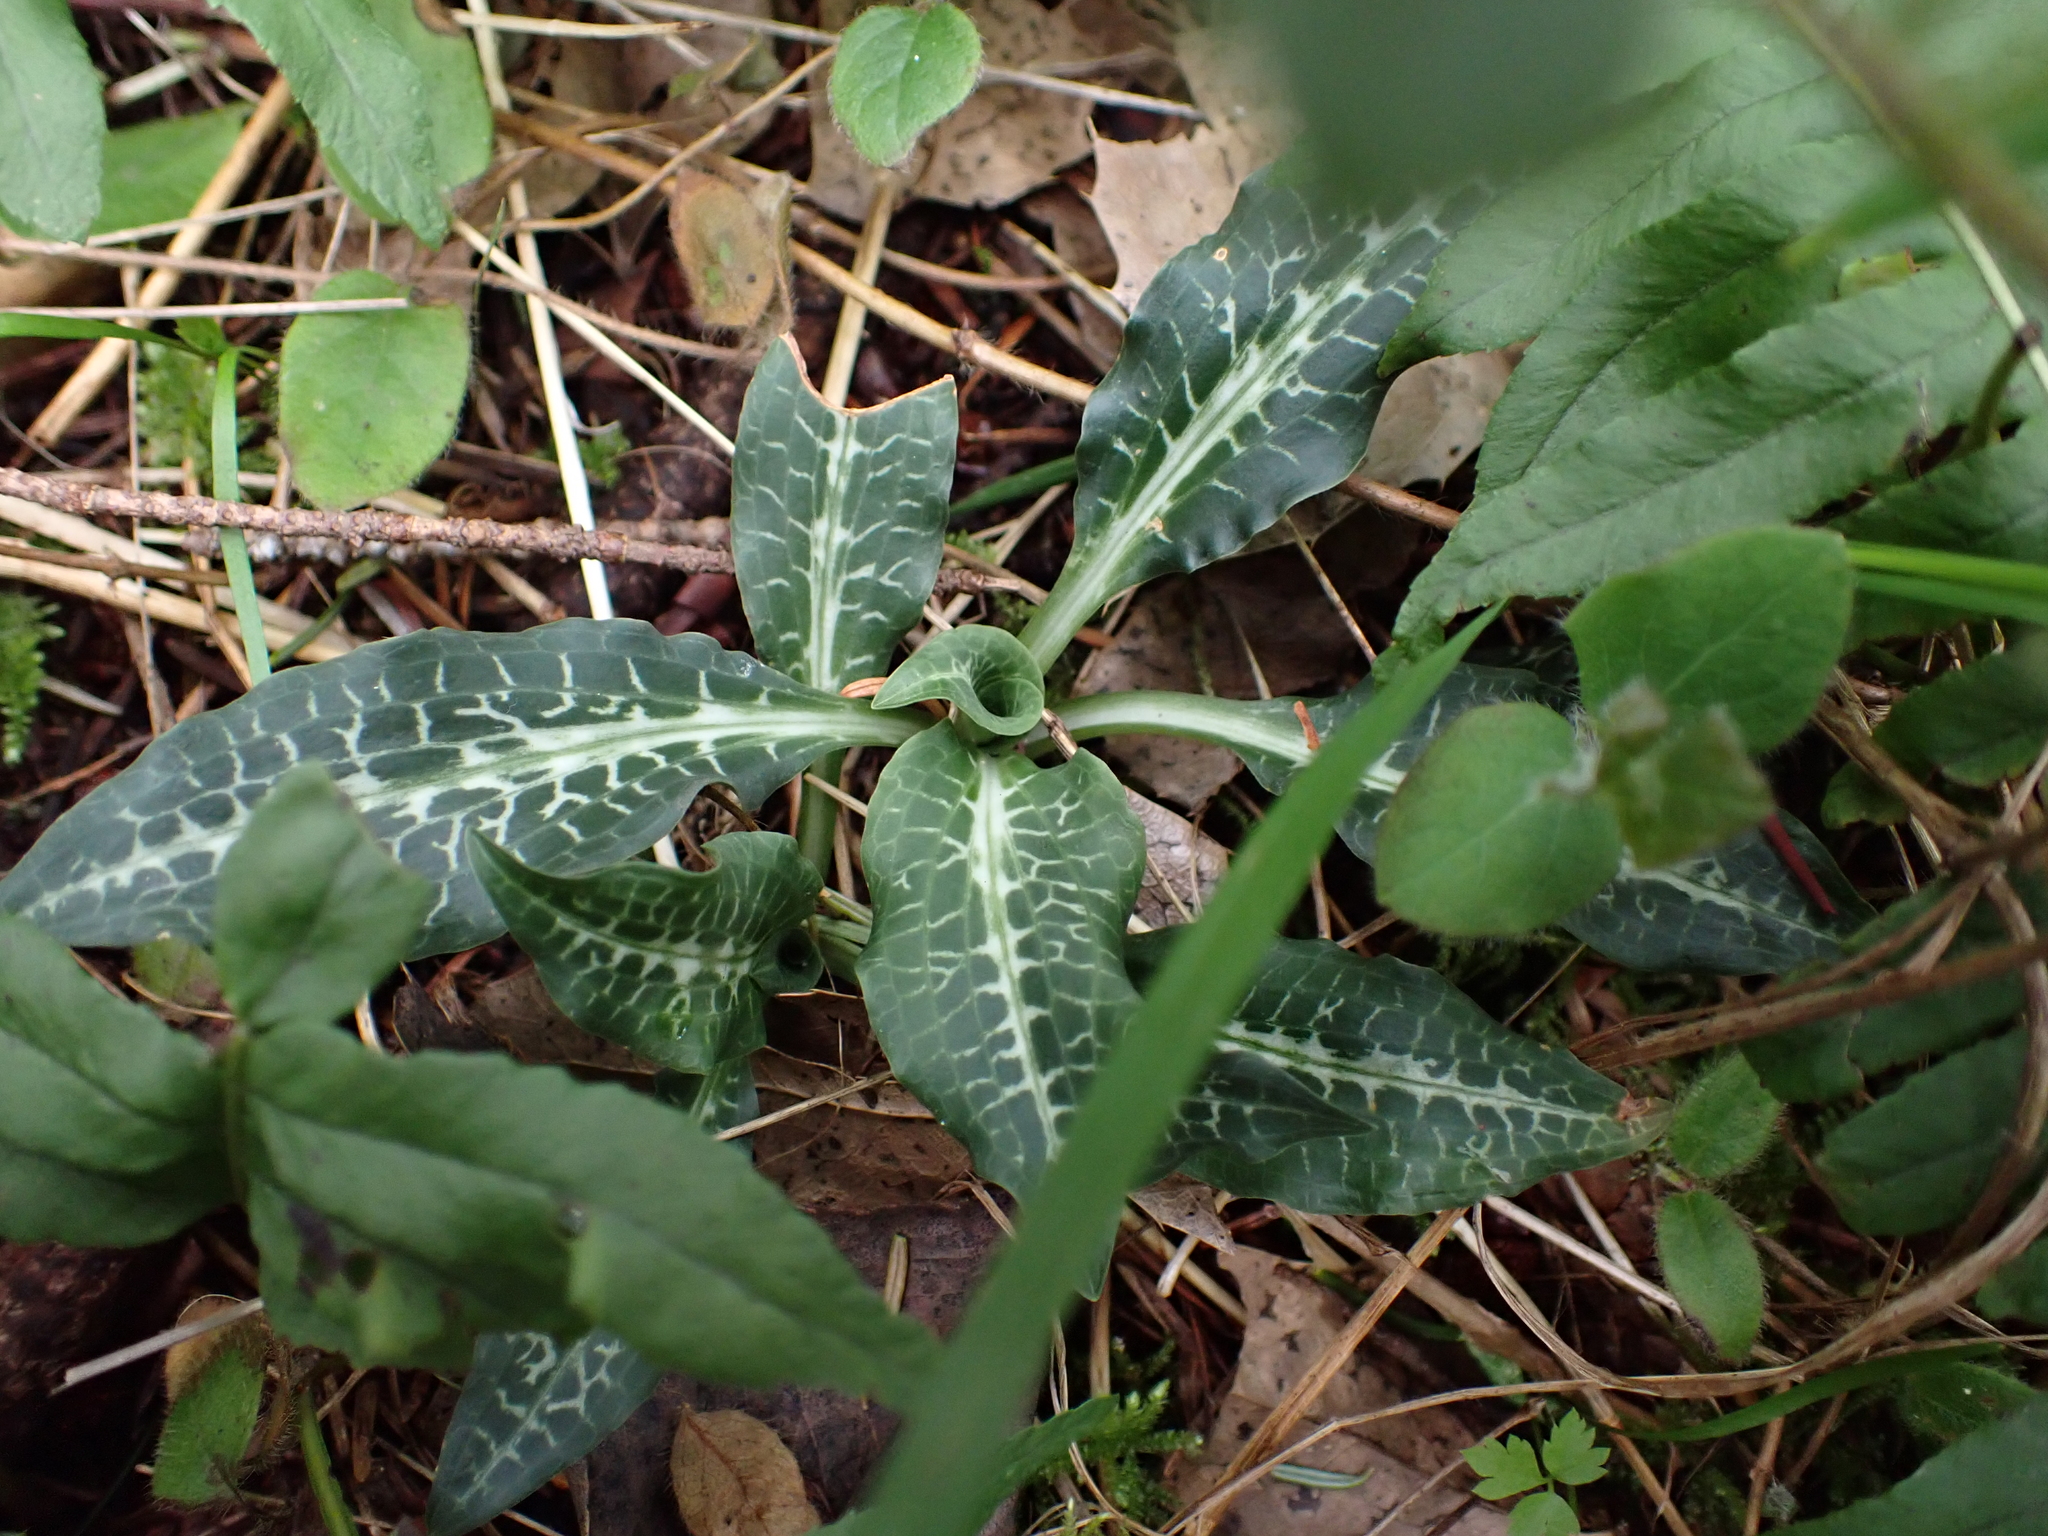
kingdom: Plantae
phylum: Tracheophyta
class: Liliopsida
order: Asparagales
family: Orchidaceae
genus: Goodyera
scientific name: Goodyera oblongifolia
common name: Giant rattlesnake-plantain
